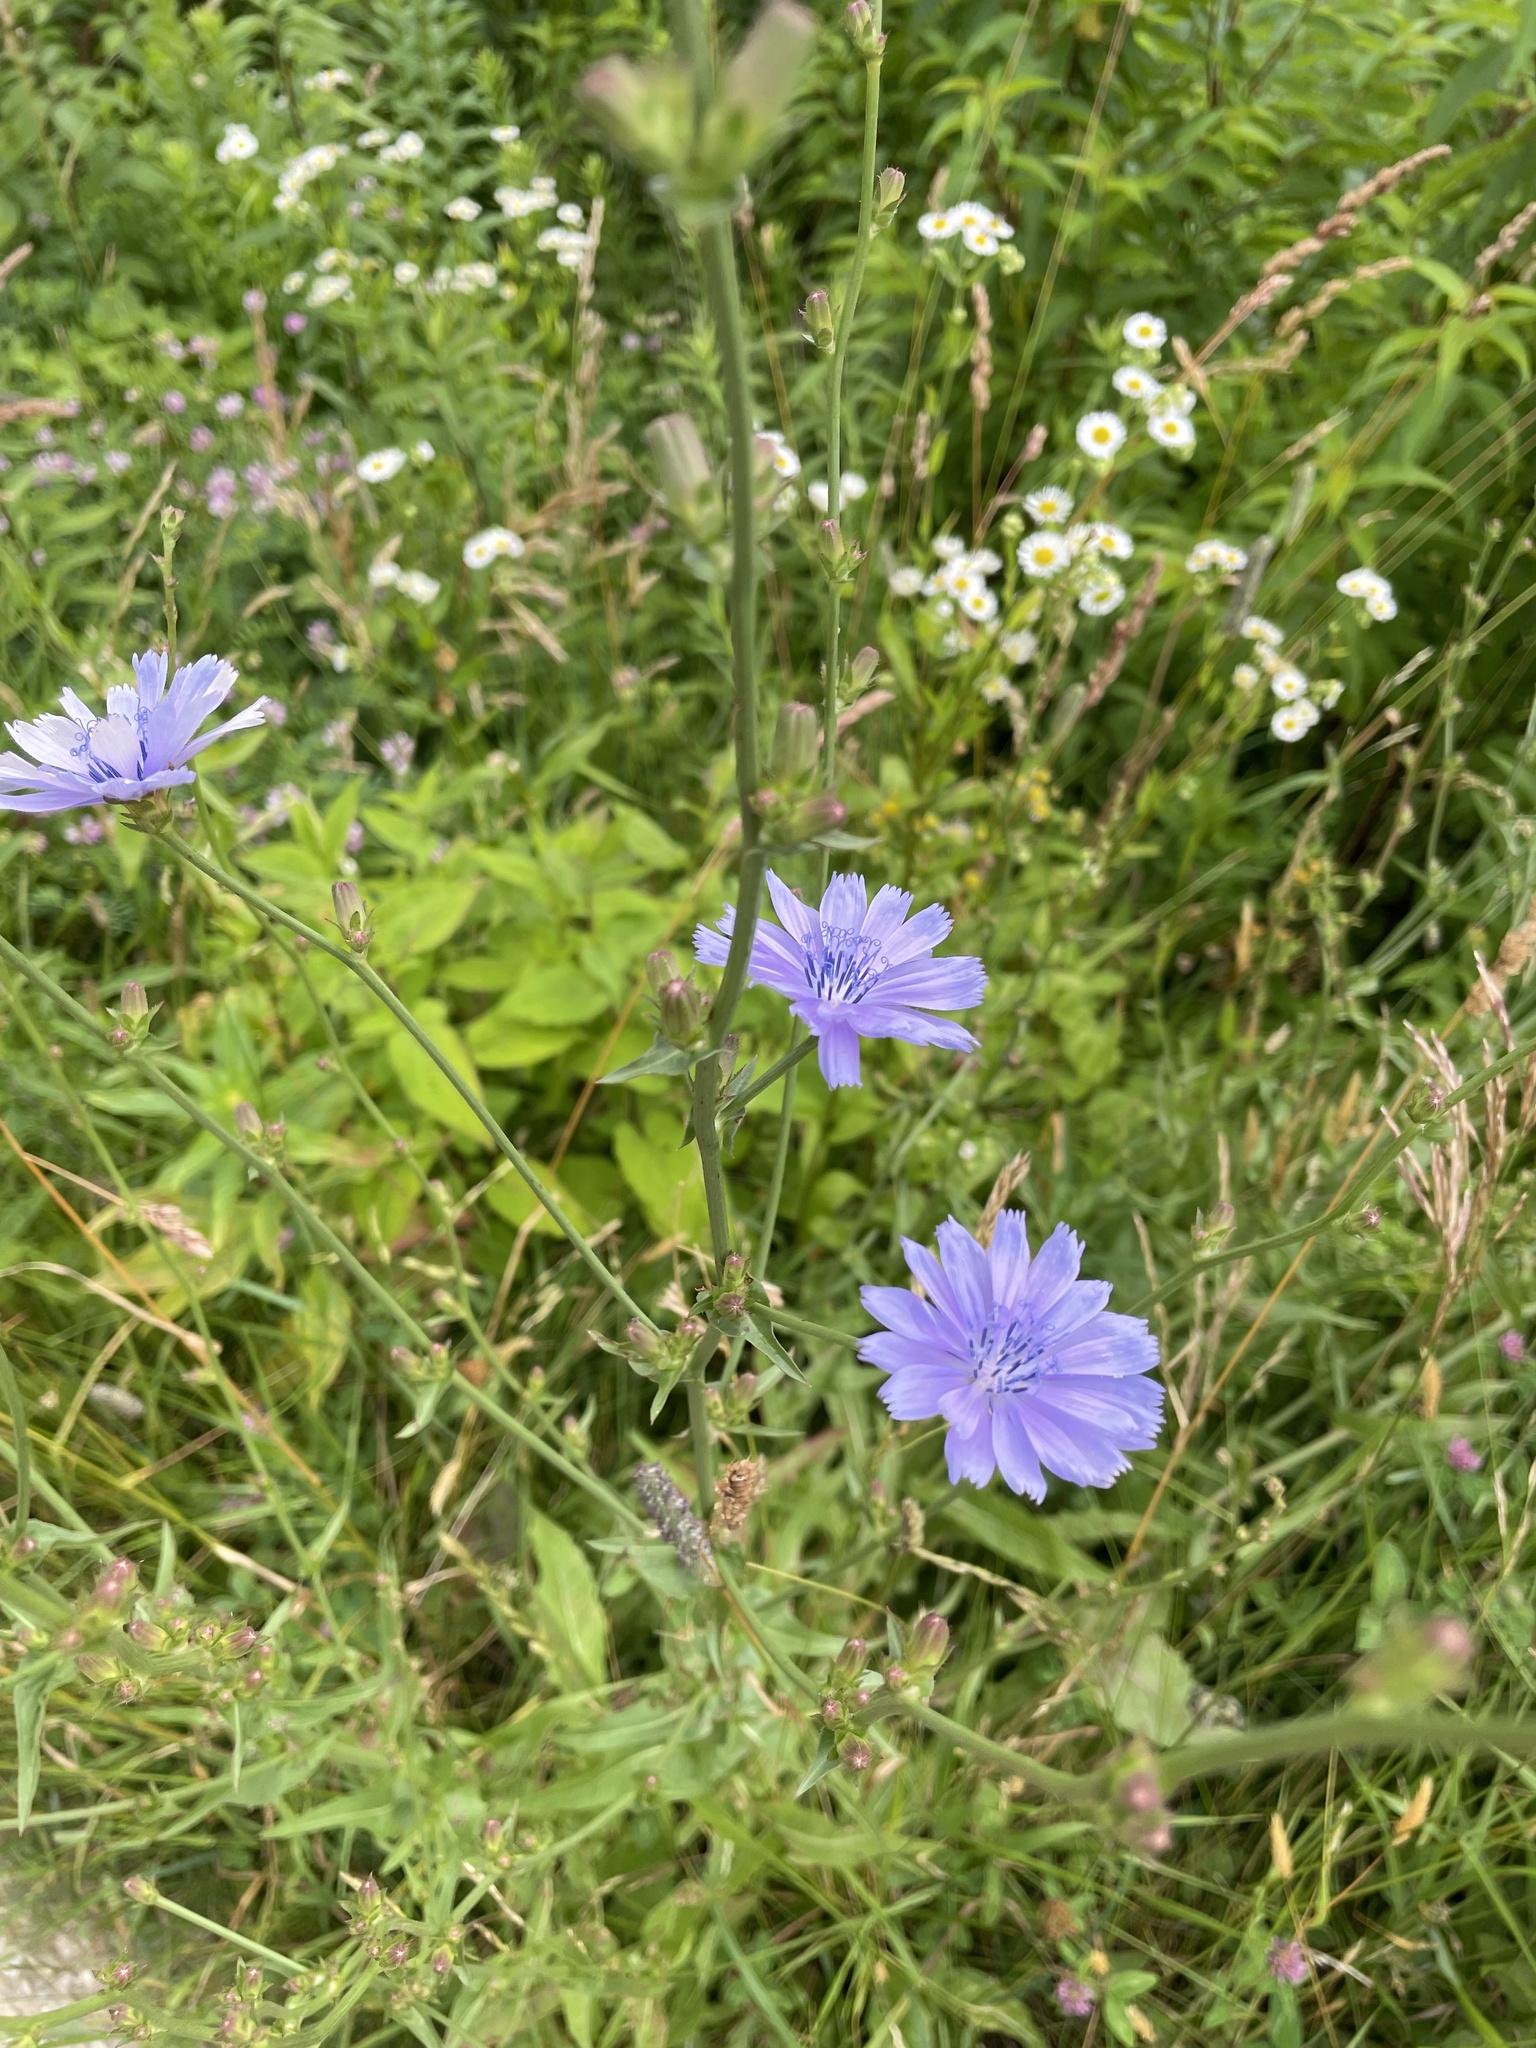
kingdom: Plantae
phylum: Tracheophyta
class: Magnoliopsida
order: Asterales
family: Asteraceae
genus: Cichorium
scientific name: Cichorium intybus
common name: Chicory
